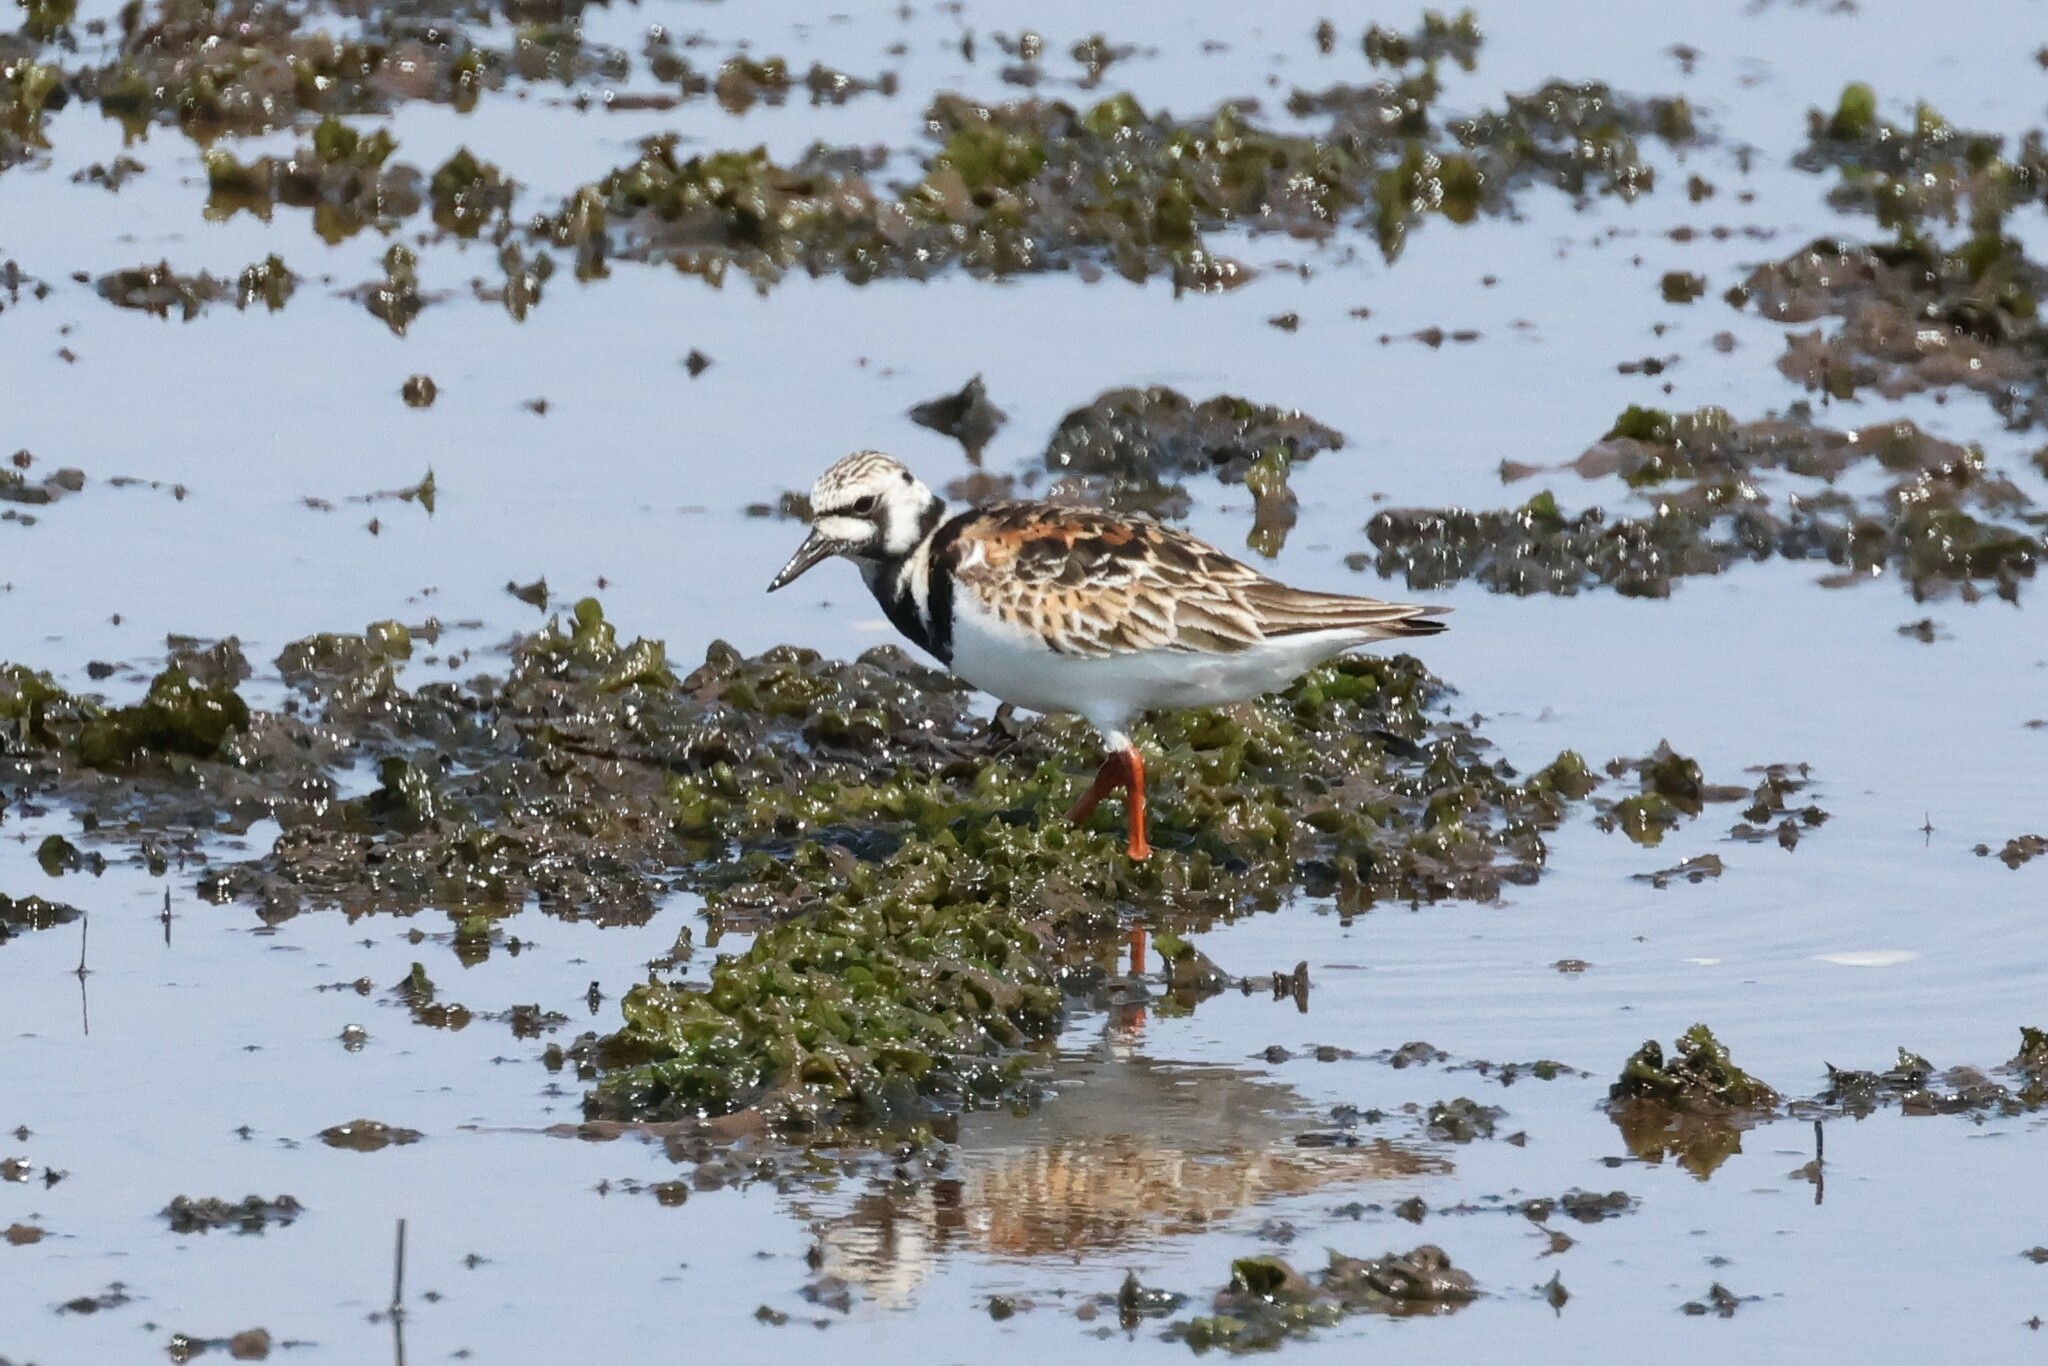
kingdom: Animalia
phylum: Chordata
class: Aves
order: Charadriiformes
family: Scolopacidae
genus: Arenaria
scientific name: Arenaria interpres
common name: Ruddy turnstone
